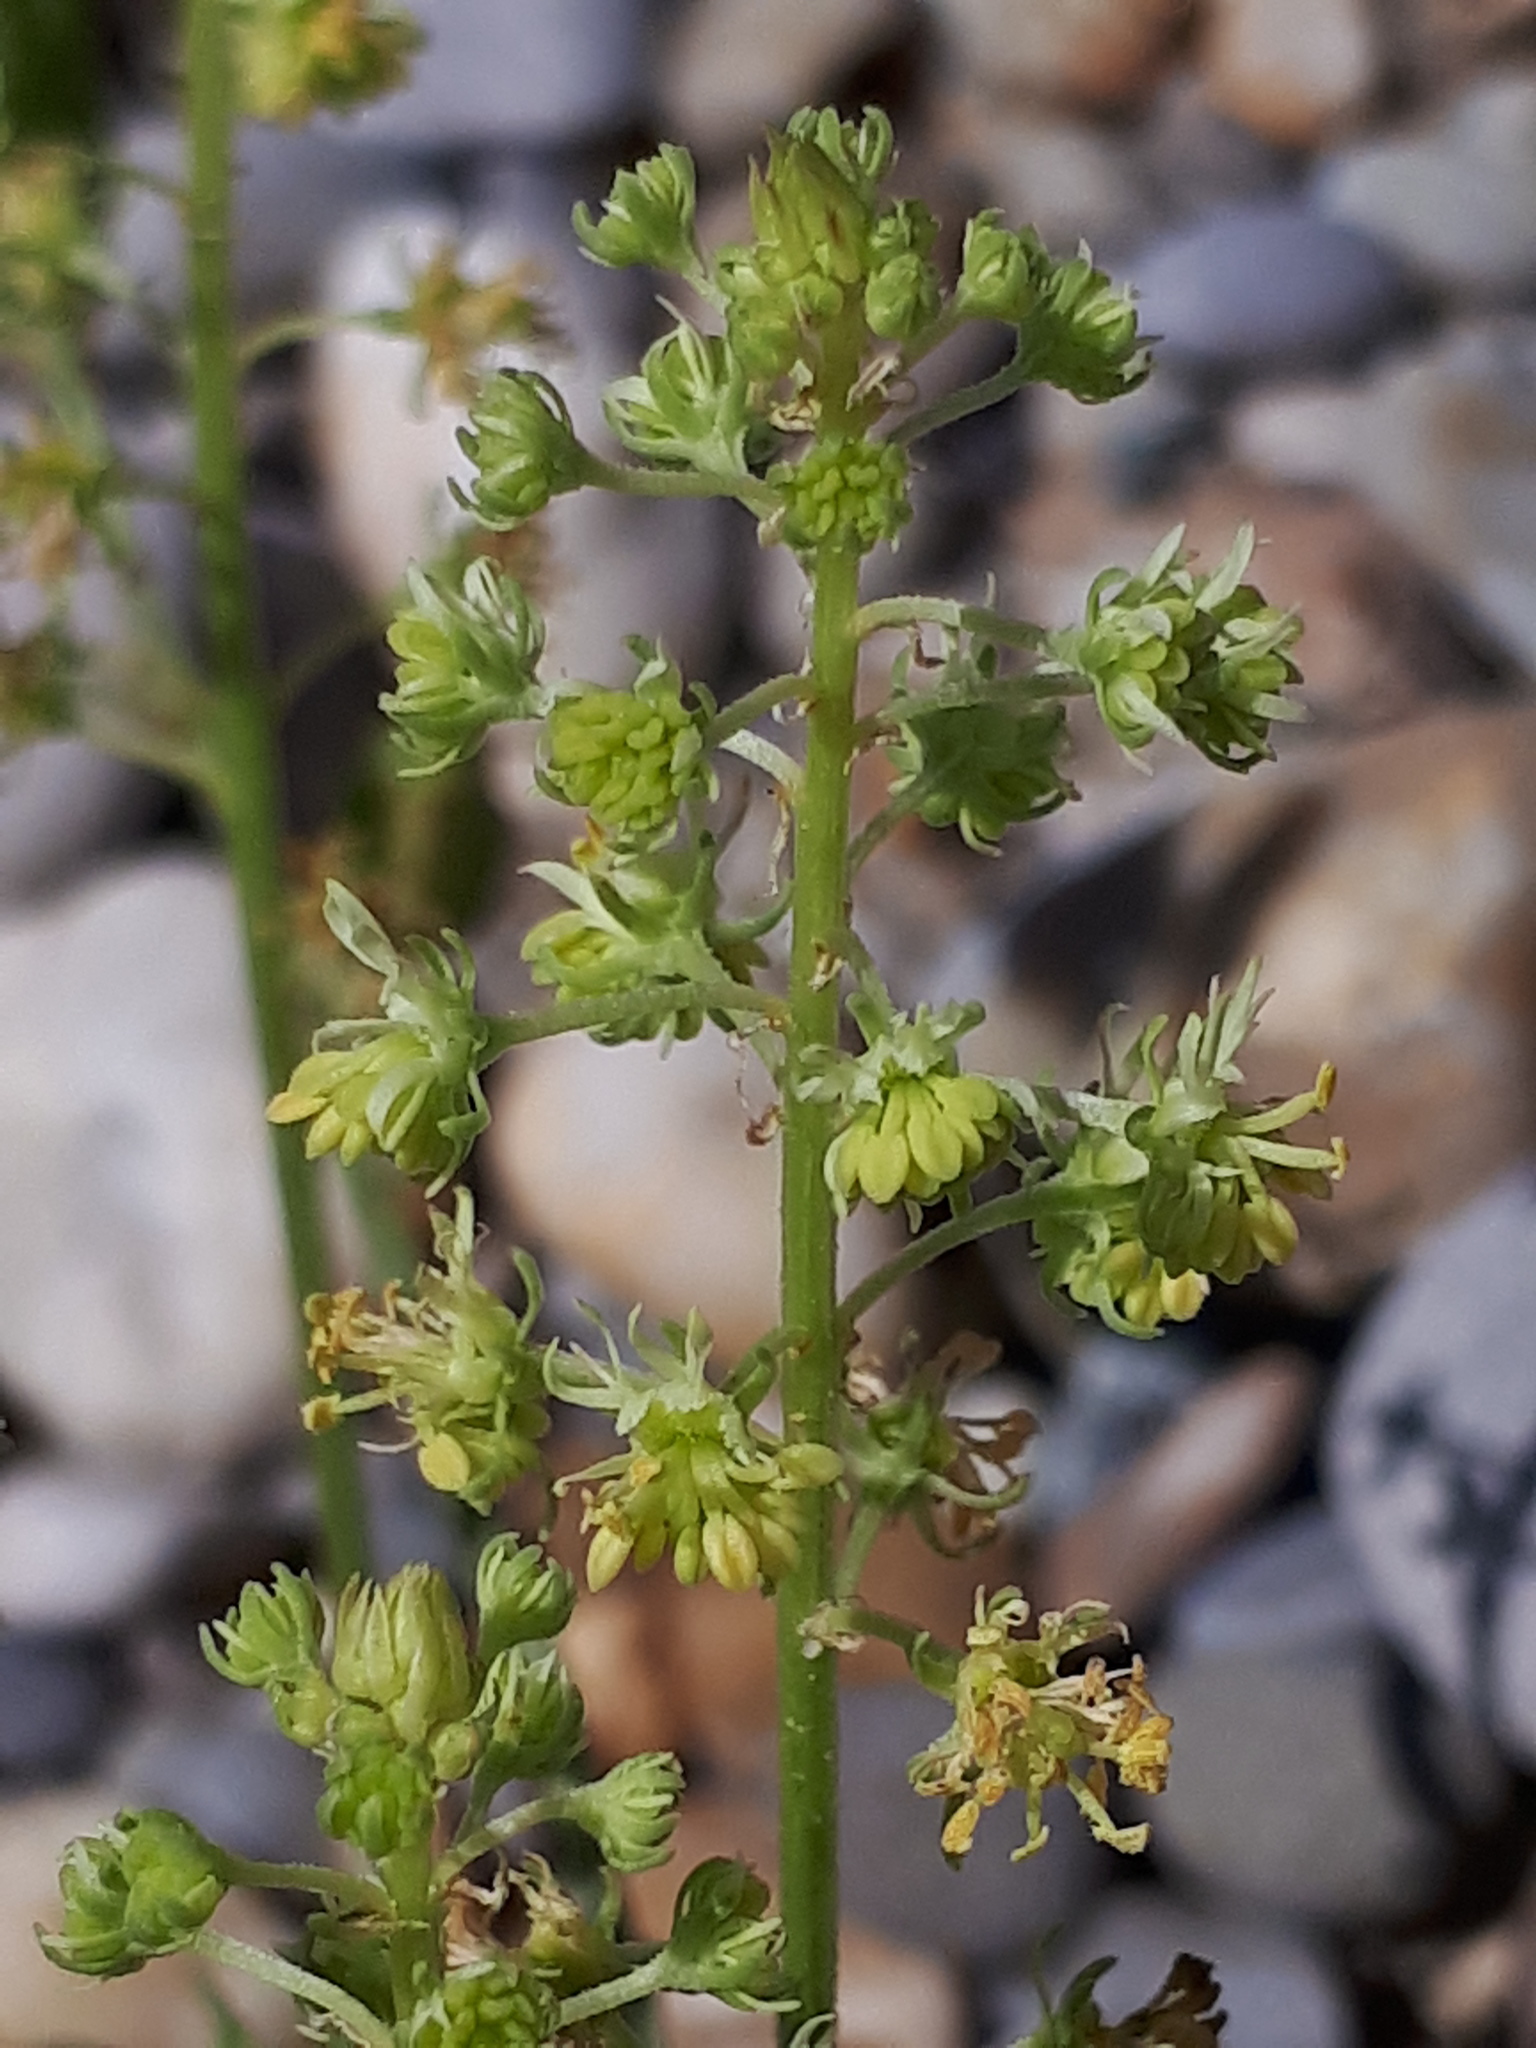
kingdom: Plantae
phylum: Tracheophyta
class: Magnoliopsida
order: Brassicales
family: Resedaceae
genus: Reseda
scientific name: Reseda lutea
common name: Wild mignonette
